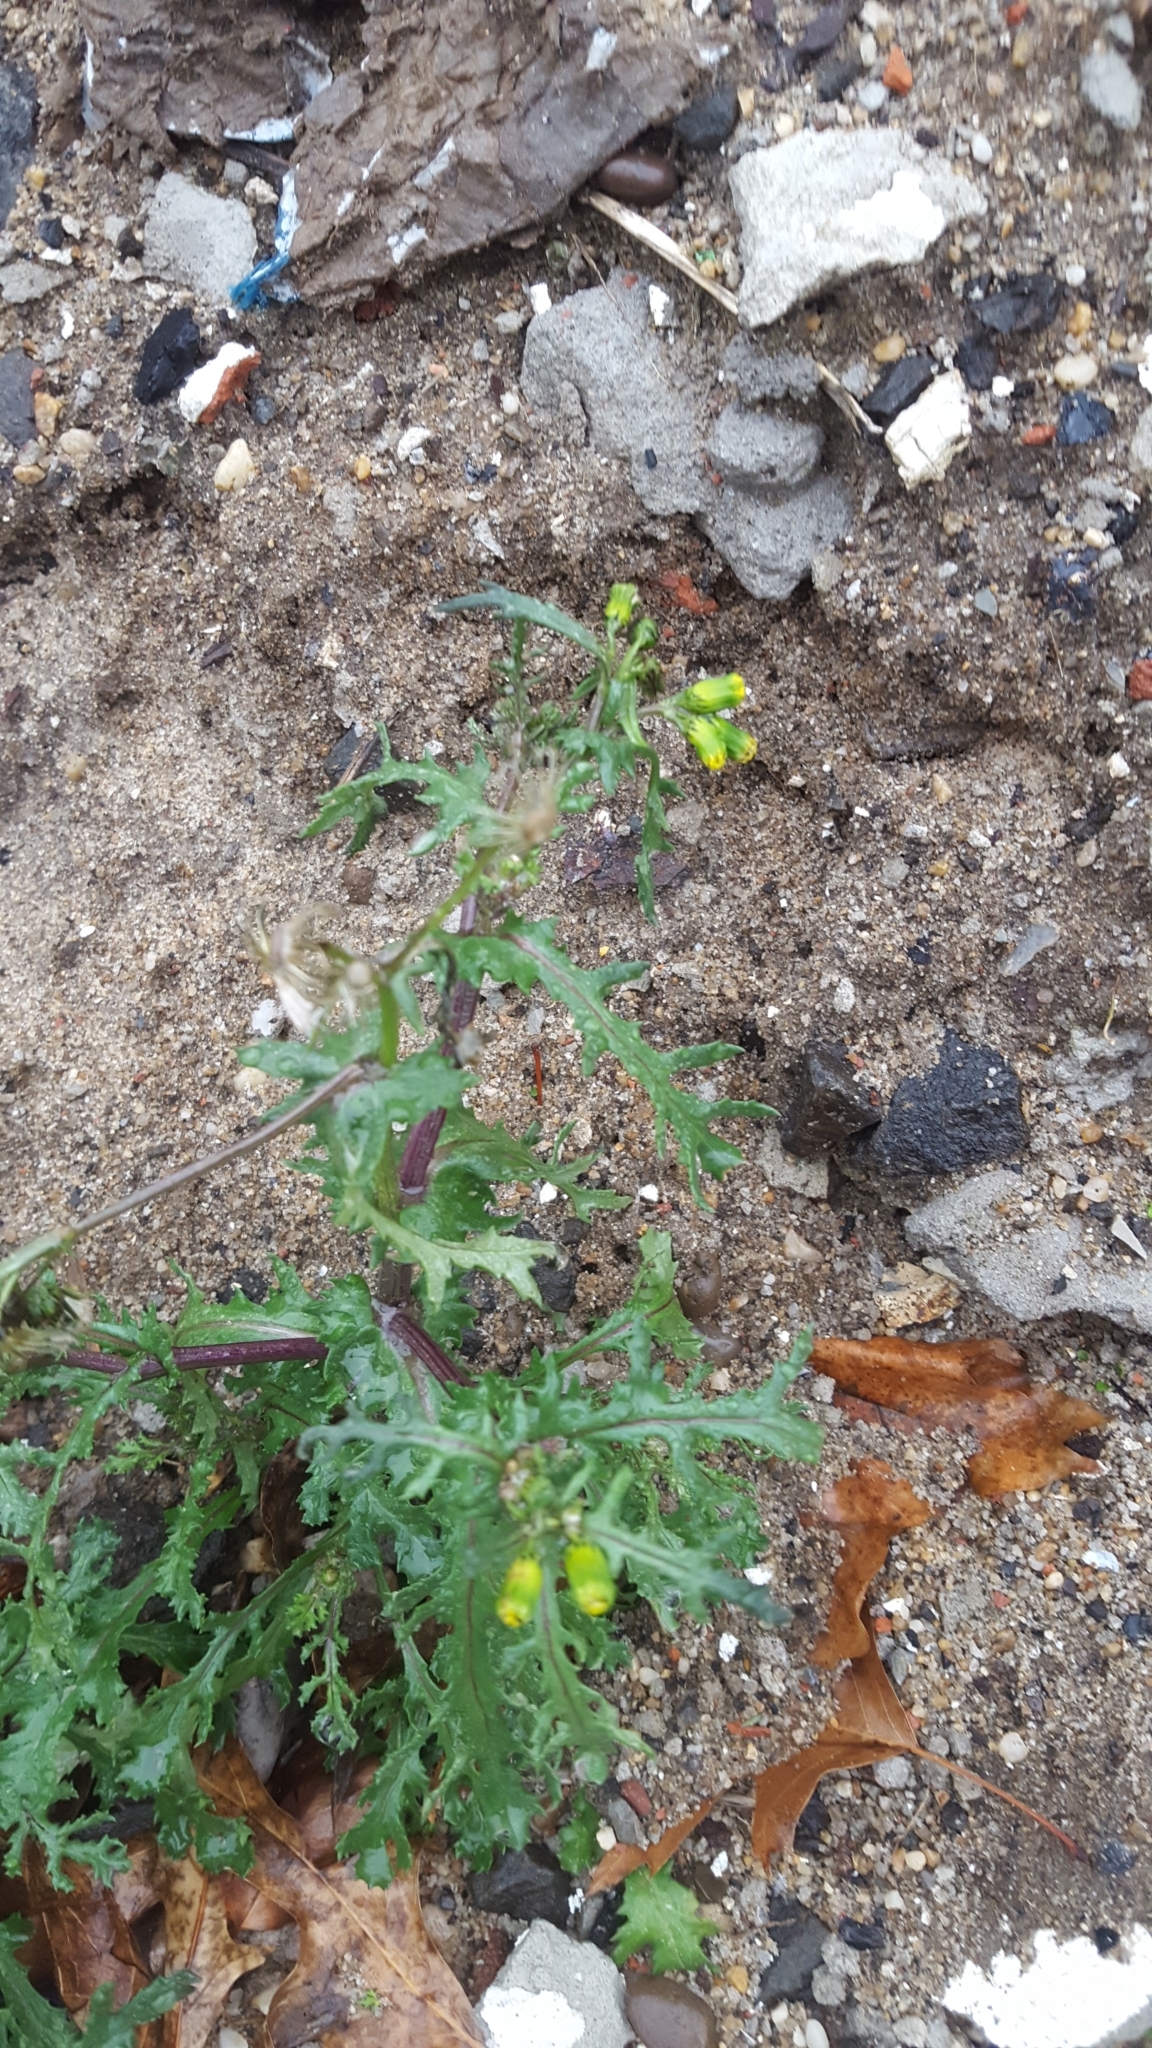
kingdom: Plantae
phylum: Tracheophyta
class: Magnoliopsida
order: Asterales
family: Asteraceae
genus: Senecio
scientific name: Senecio vulgaris
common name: Old-man-in-the-spring
